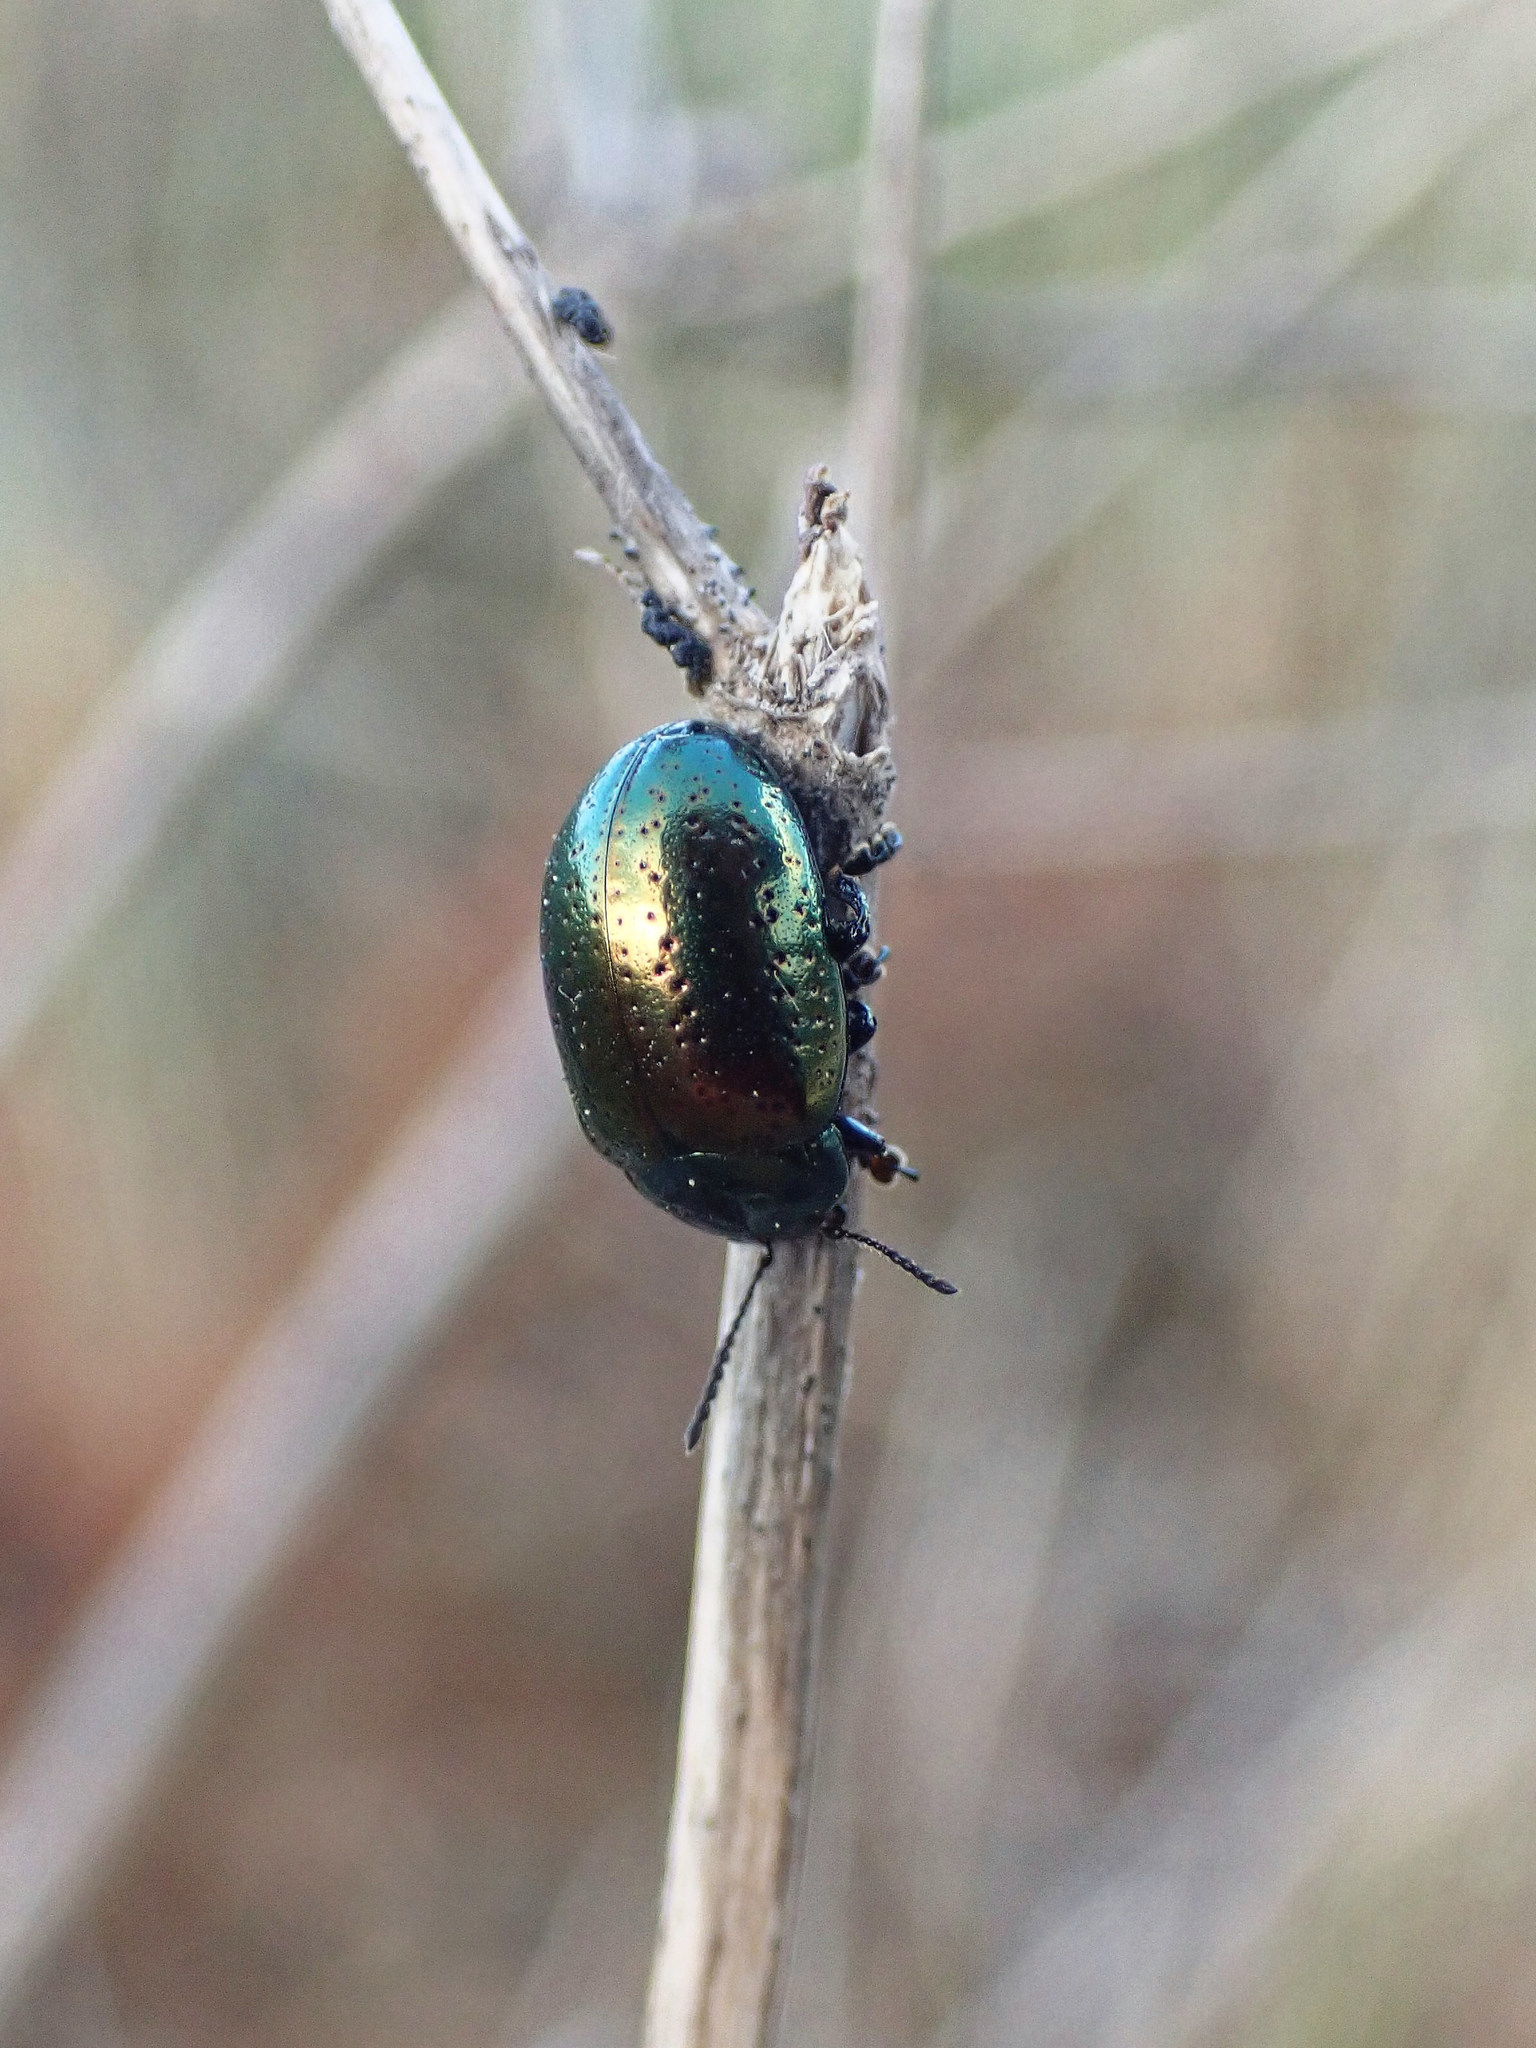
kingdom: Animalia
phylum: Arthropoda
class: Insecta
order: Coleoptera
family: Chrysomelidae
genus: Chrysolina
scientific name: Chrysolina hyperici
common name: St. johnswort beetle
